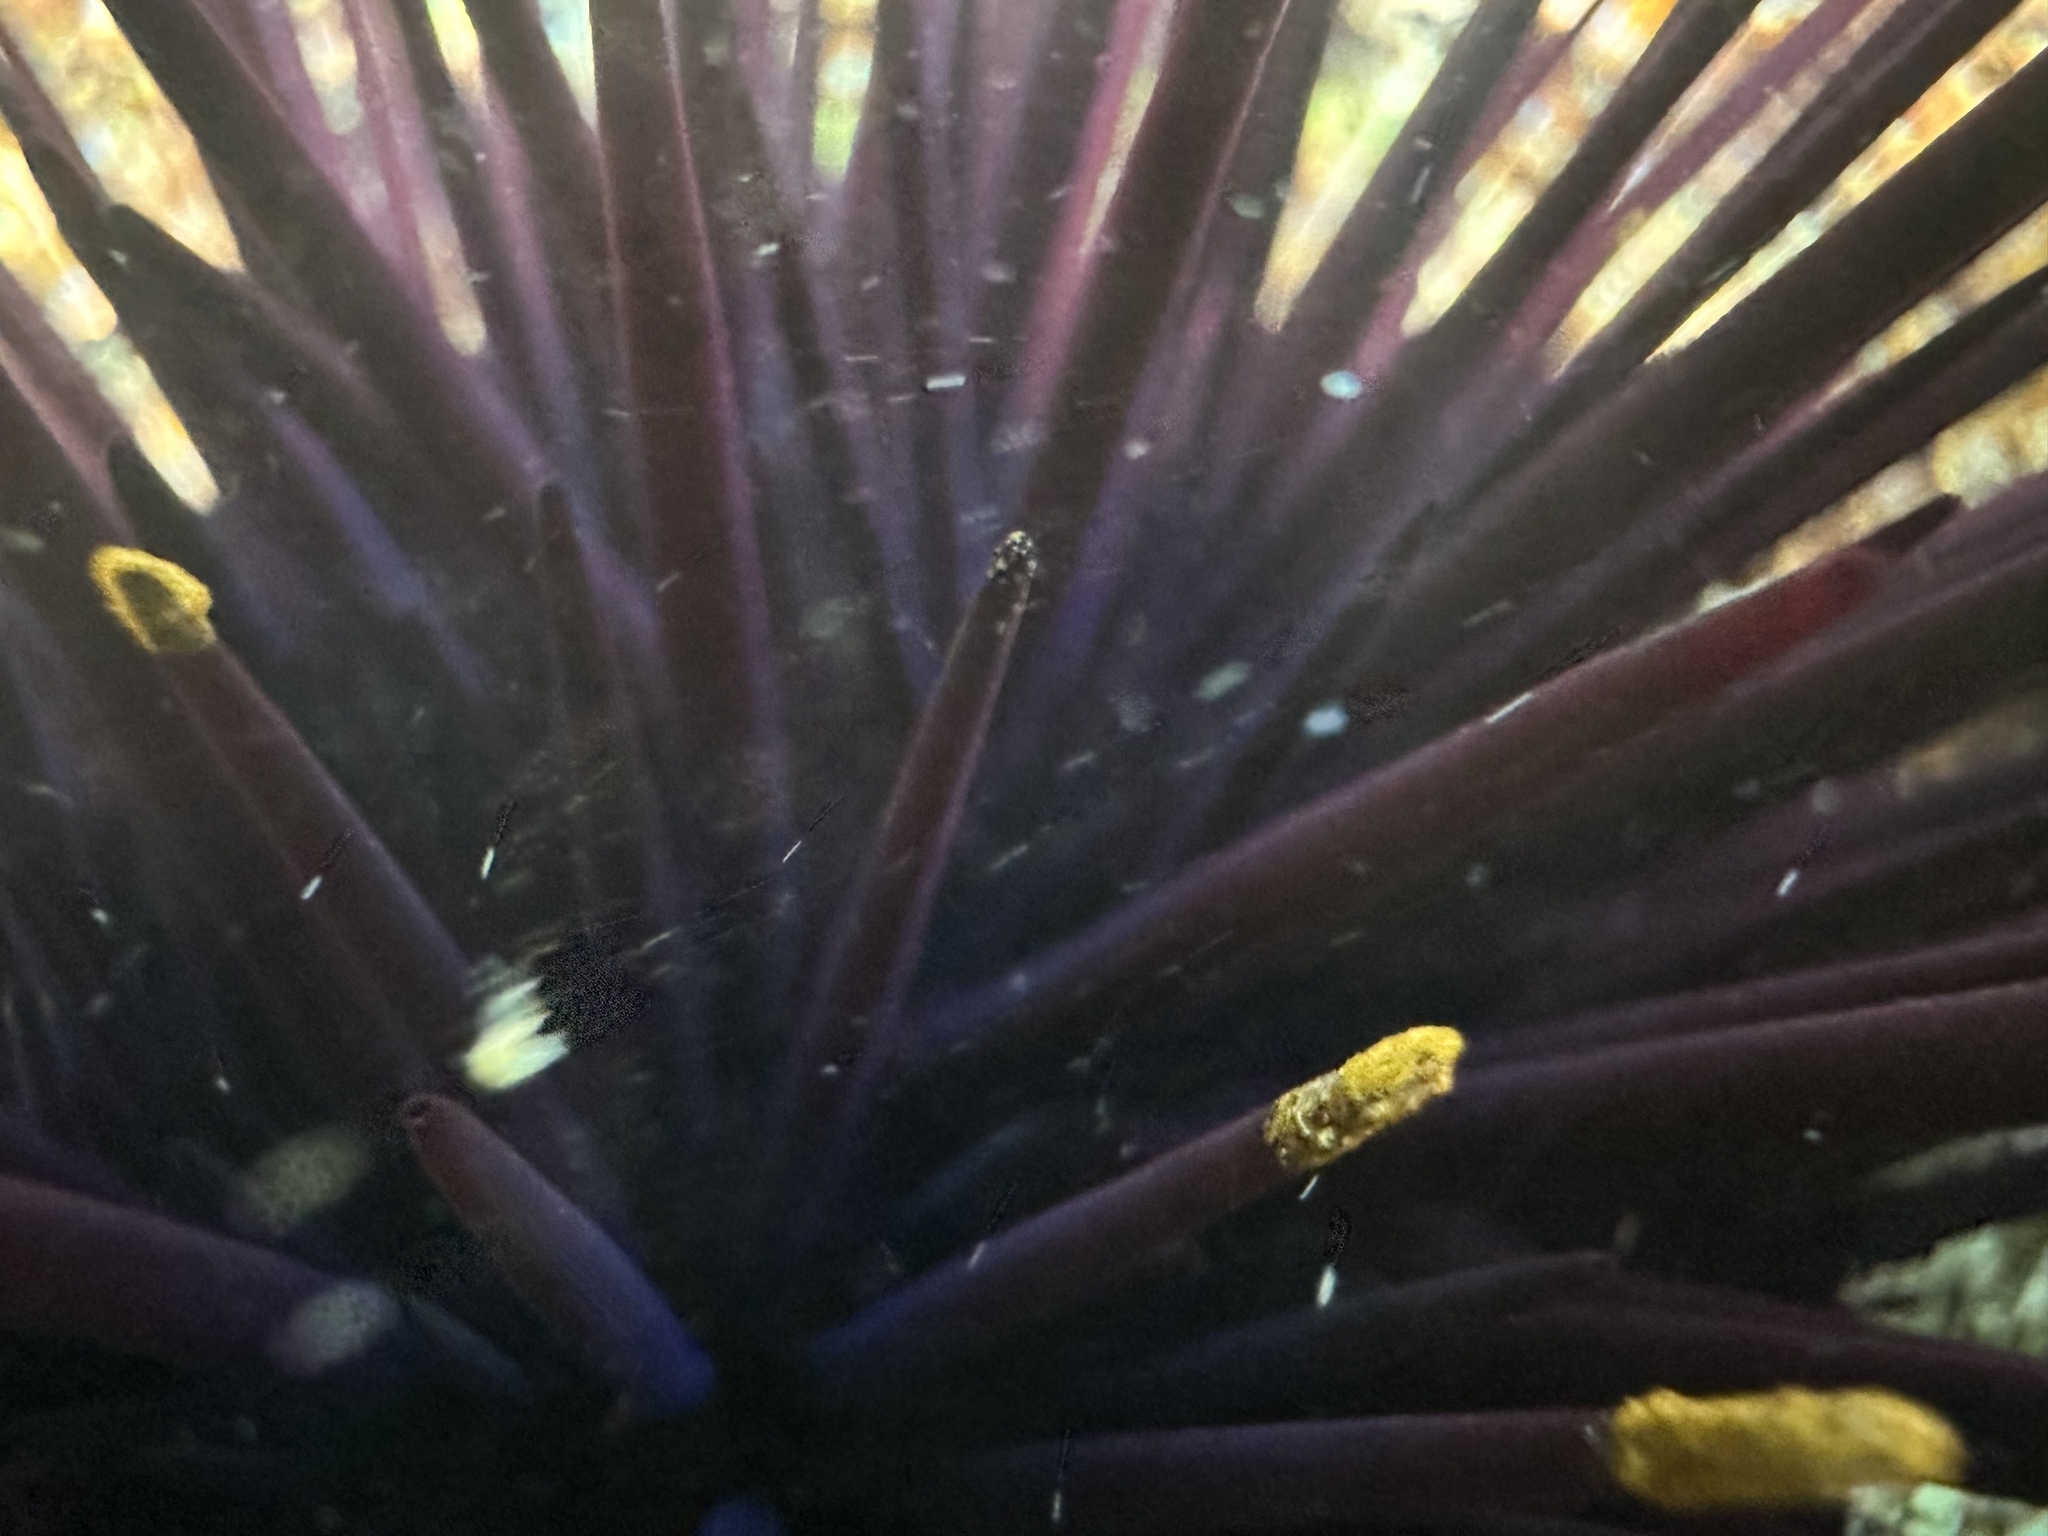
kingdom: Animalia
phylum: Echinodermata
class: Echinoidea
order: Diadematoida
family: Diadematidae
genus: Centrostephanus
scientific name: Centrostephanus rodgersii
